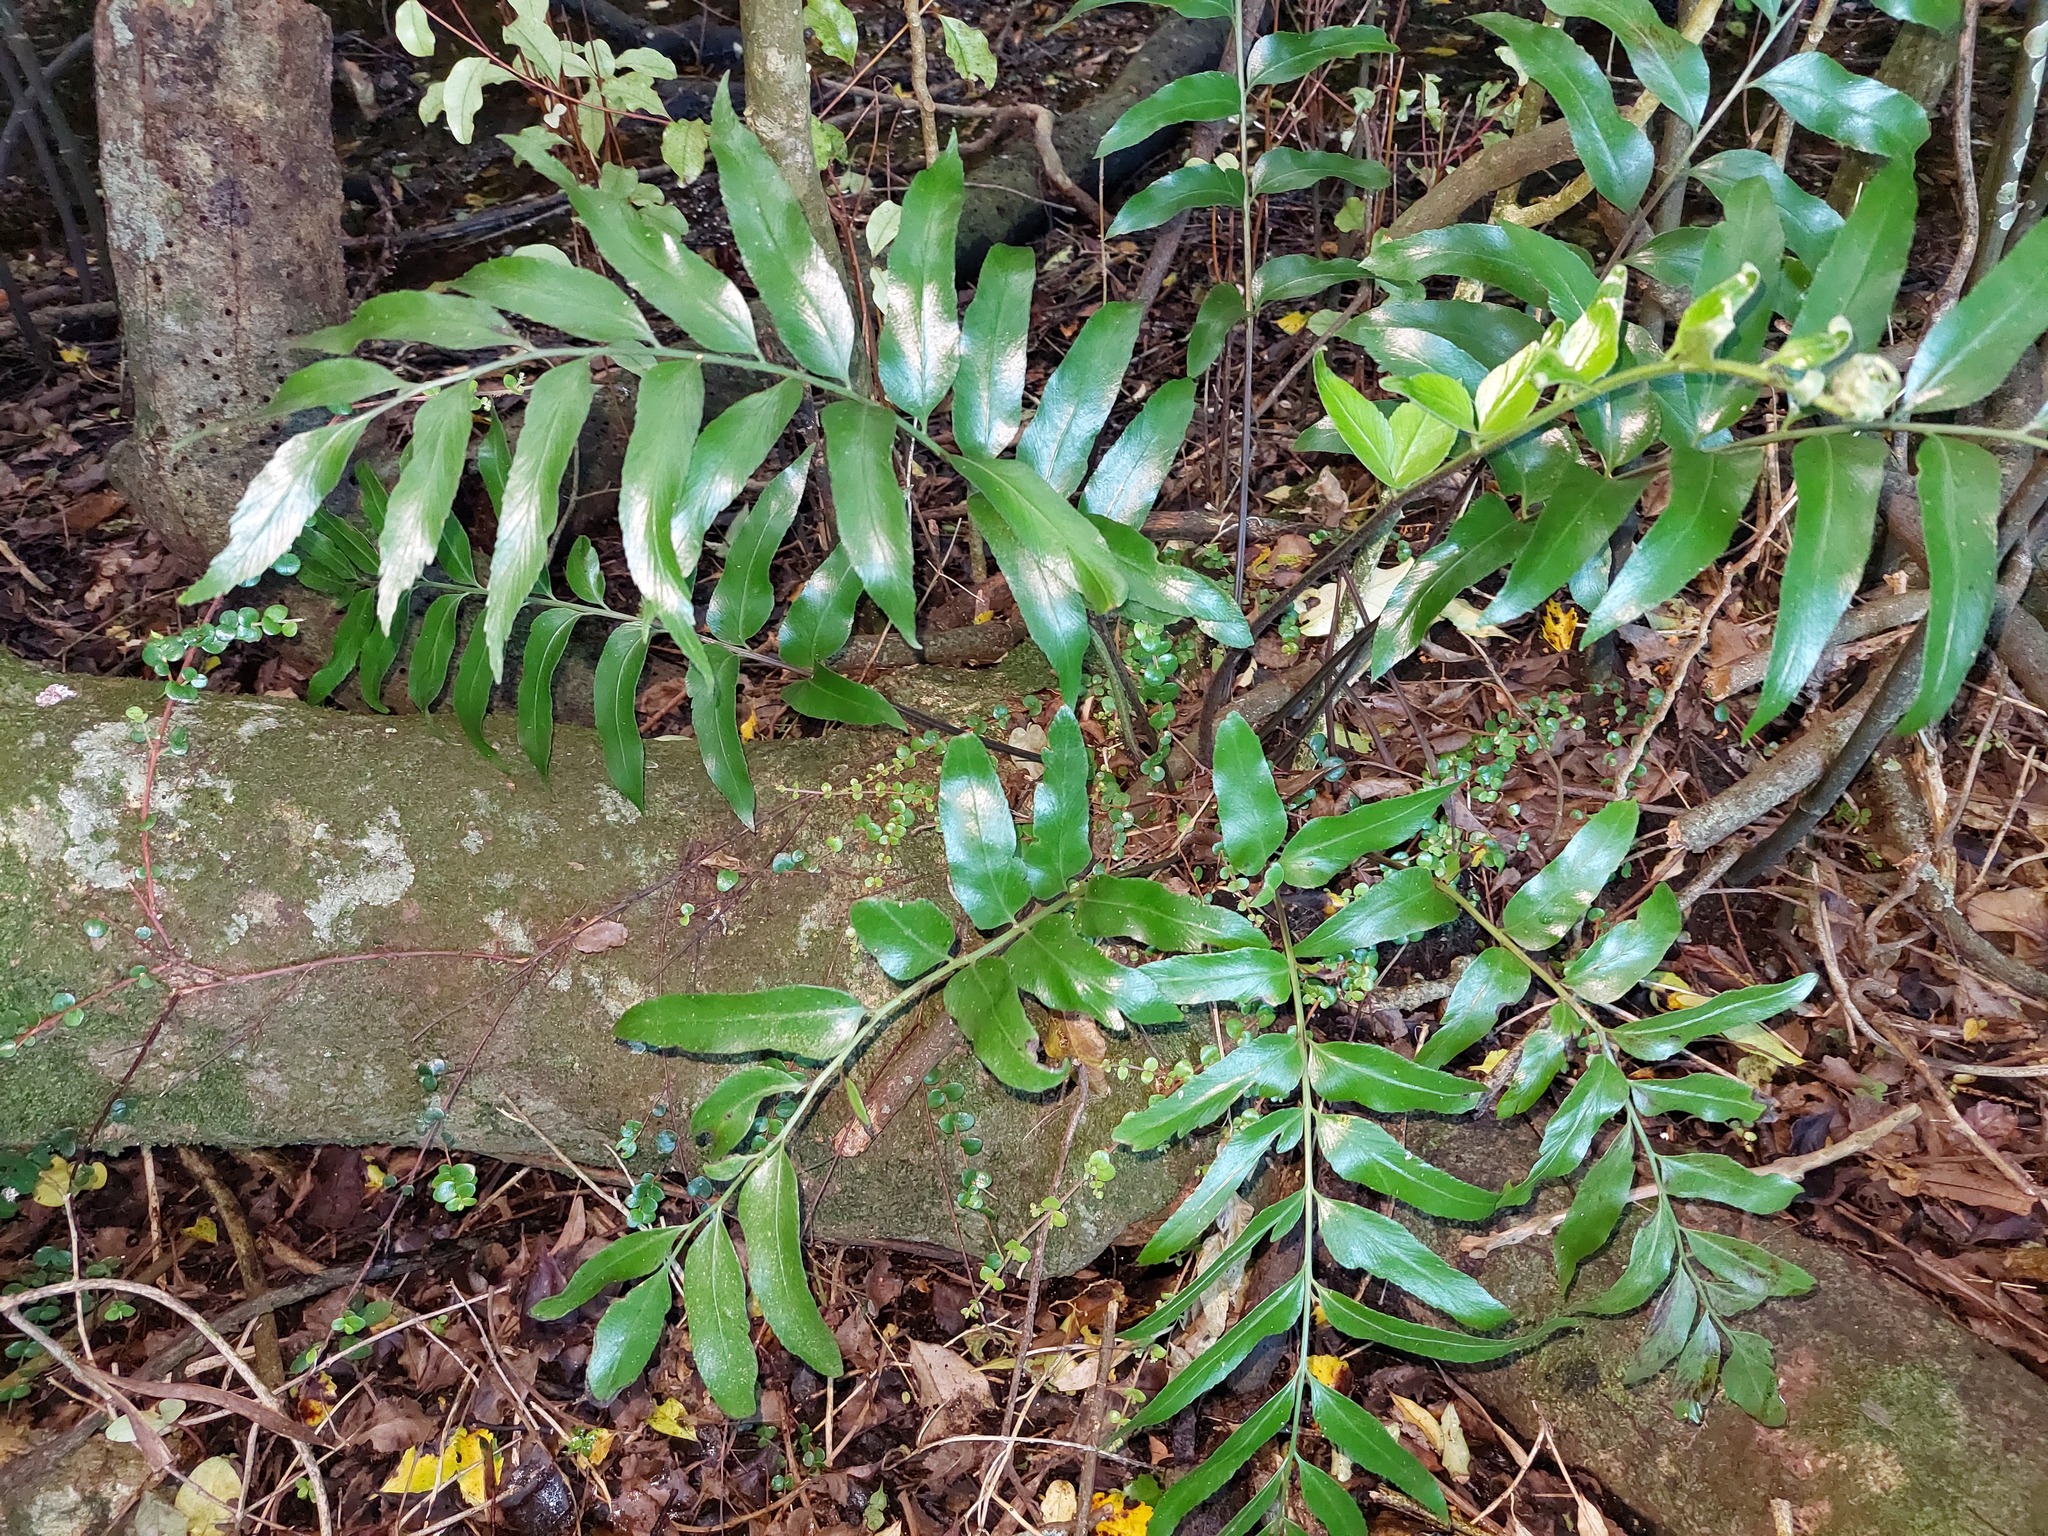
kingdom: Plantae
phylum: Tracheophyta
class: Polypodiopsida
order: Polypodiales
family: Aspleniaceae
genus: Asplenium
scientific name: Asplenium oblongifolium
